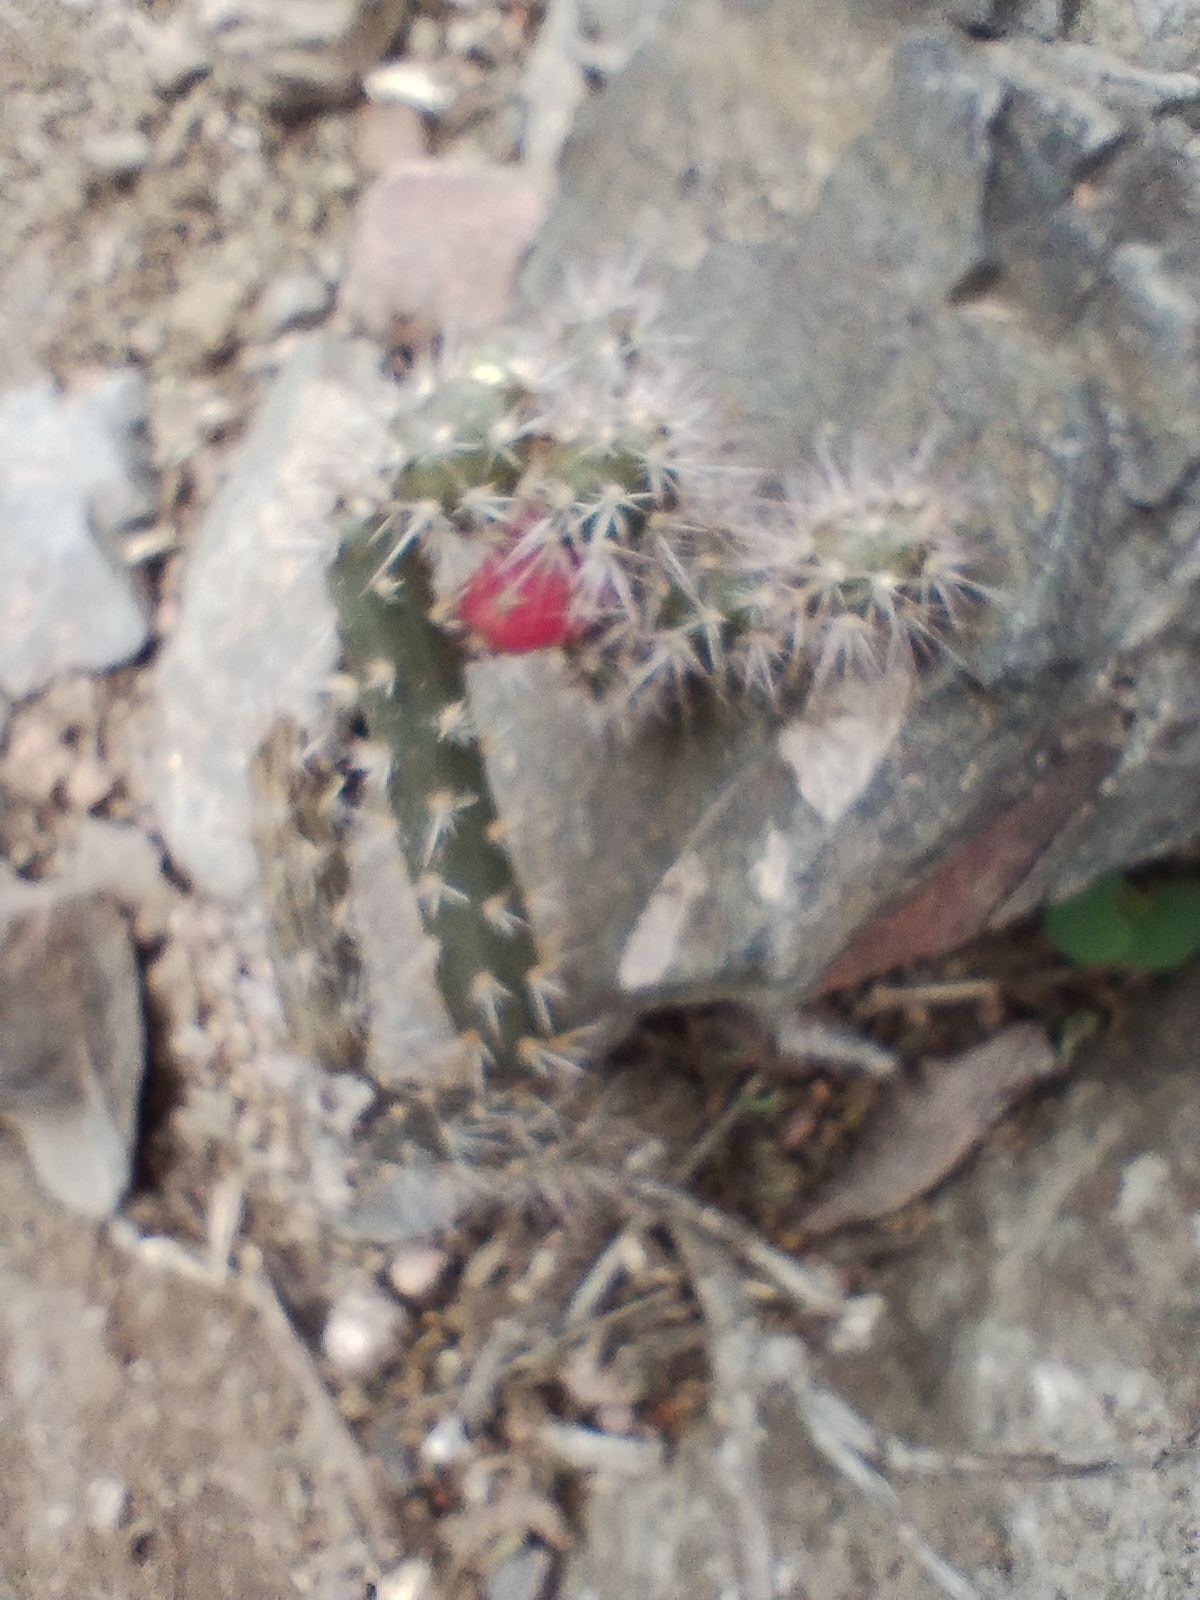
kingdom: Plantae
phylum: Tracheophyta
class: Magnoliopsida
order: Caryophyllales
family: Cactaceae
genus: Salmonopuntia
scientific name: Salmonopuntia salmiana
